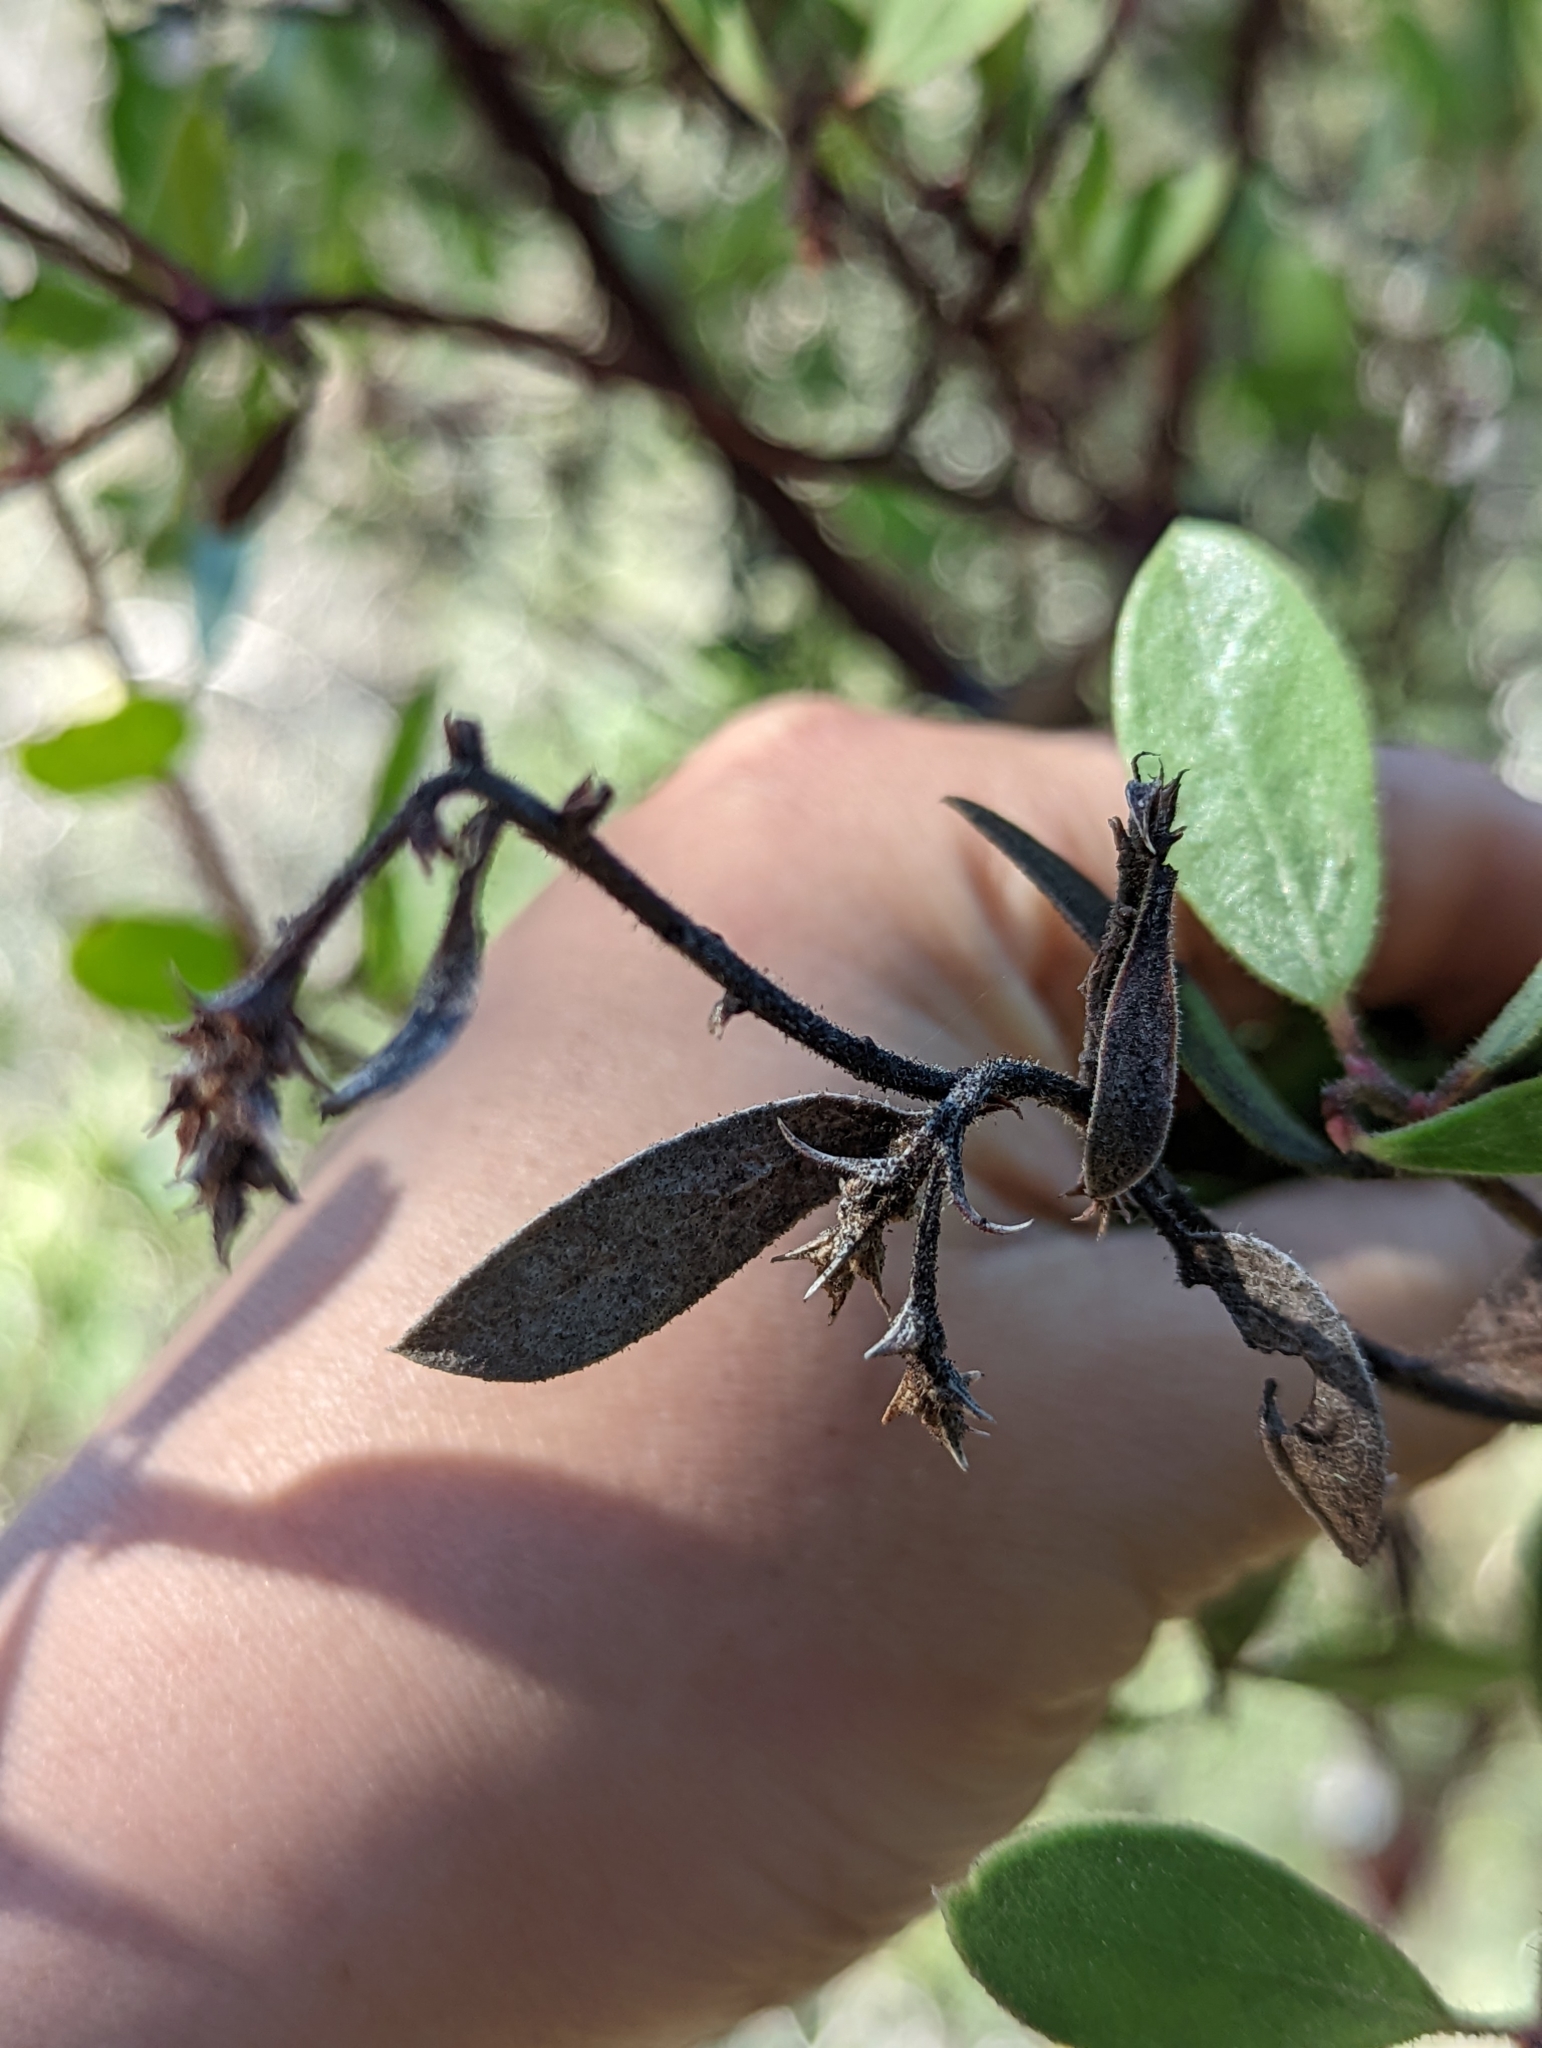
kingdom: Plantae
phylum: Tracheophyta
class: Magnoliopsida
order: Ericales
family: Ericaceae
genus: Arctostaphylos
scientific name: Arctostaphylos bakeri
